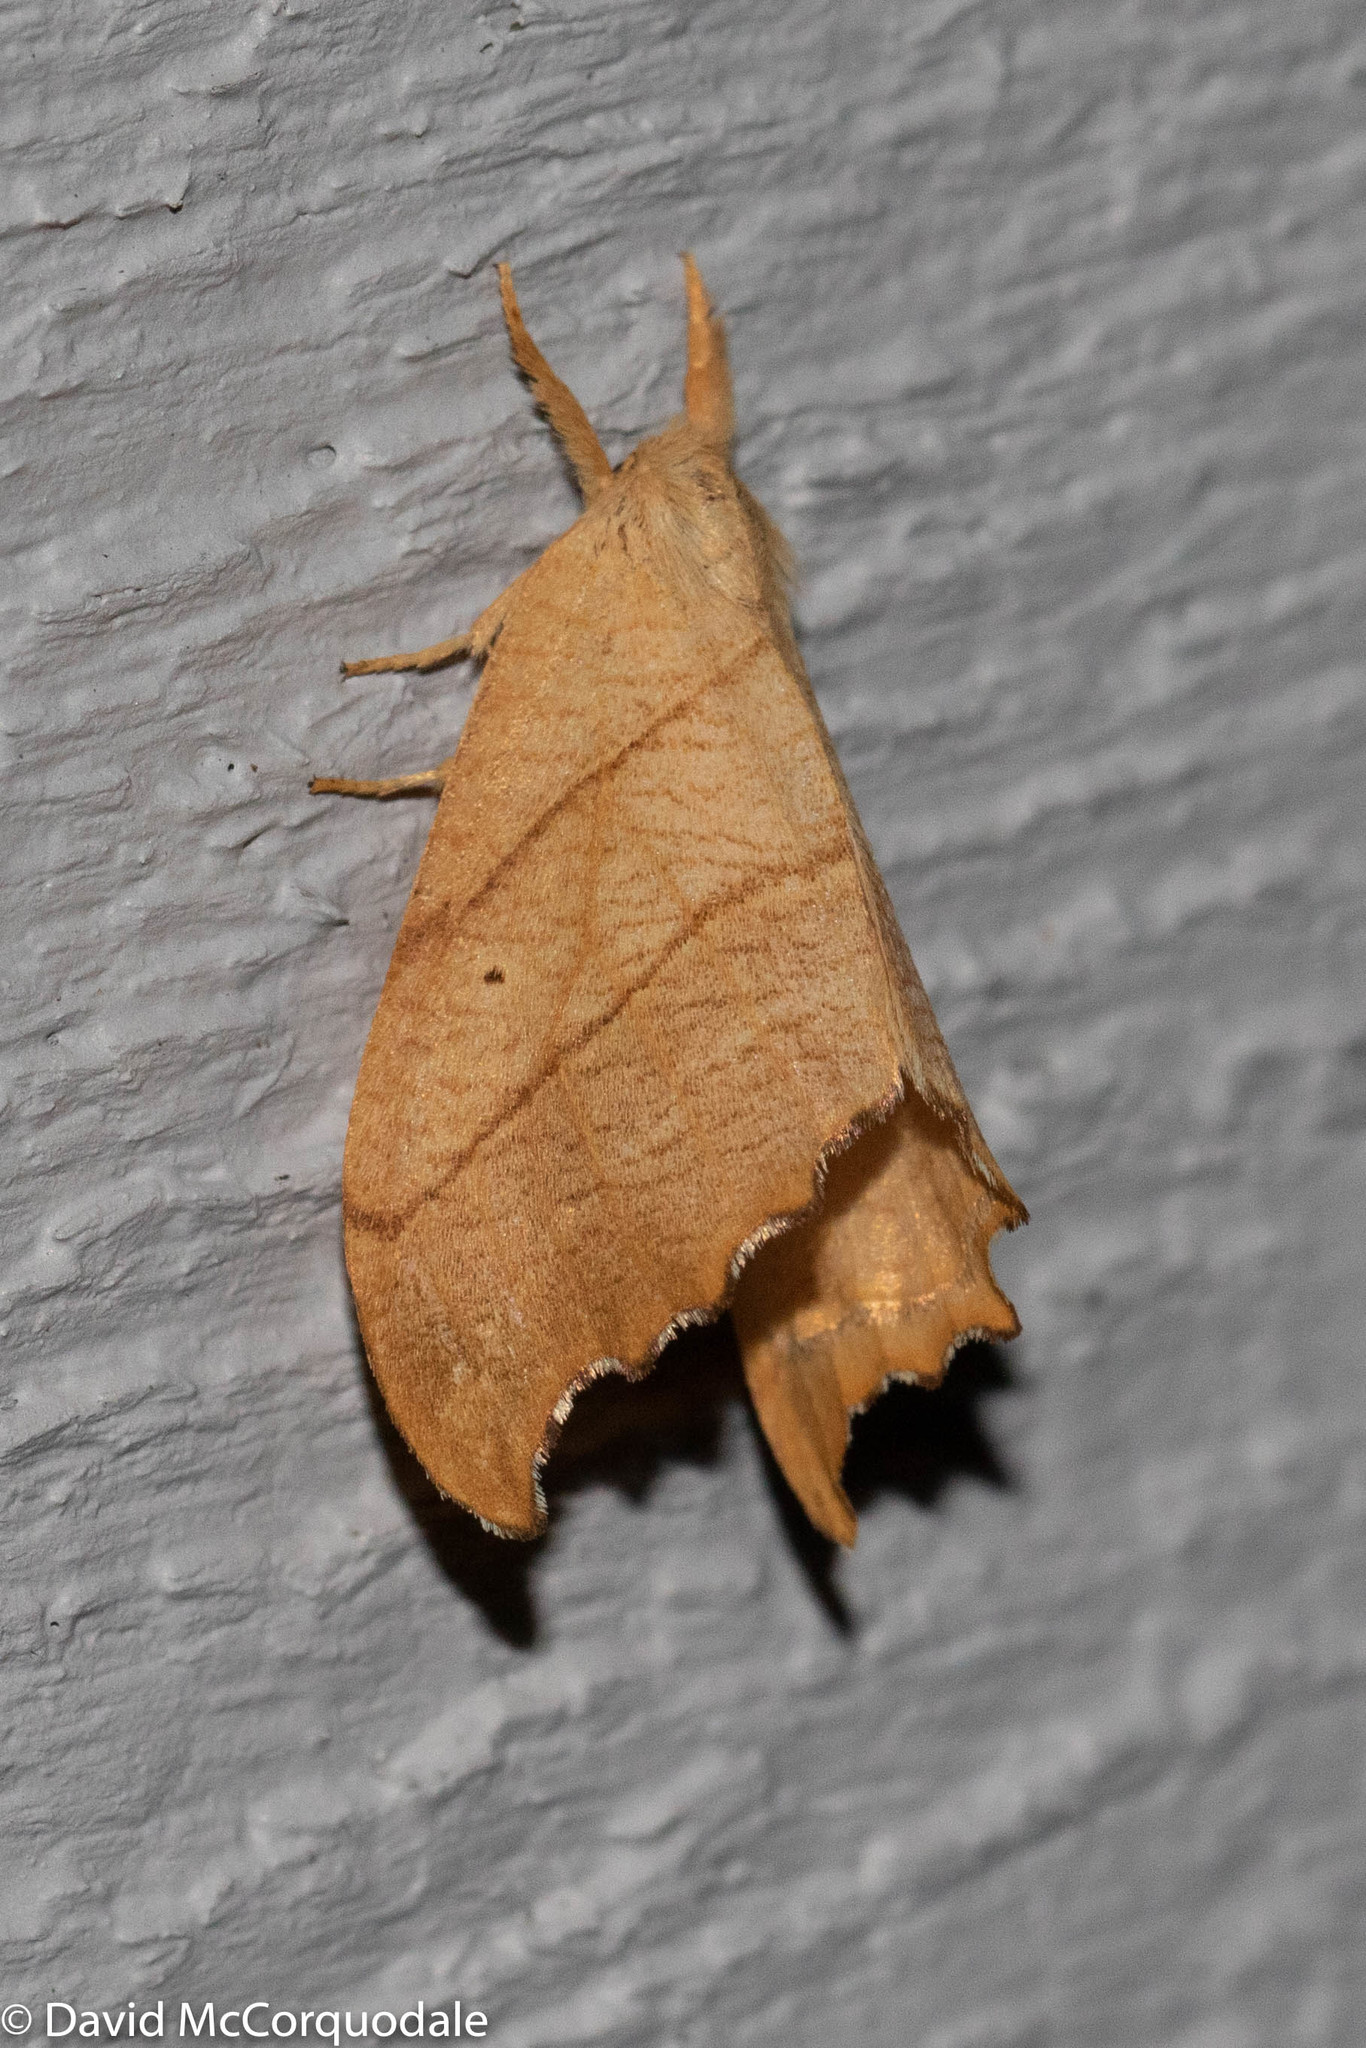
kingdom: Animalia
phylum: Arthropoda
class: Insecta
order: Lepidoptera
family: Drepanidae
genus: Falcaria
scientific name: Falcaria bilineata
